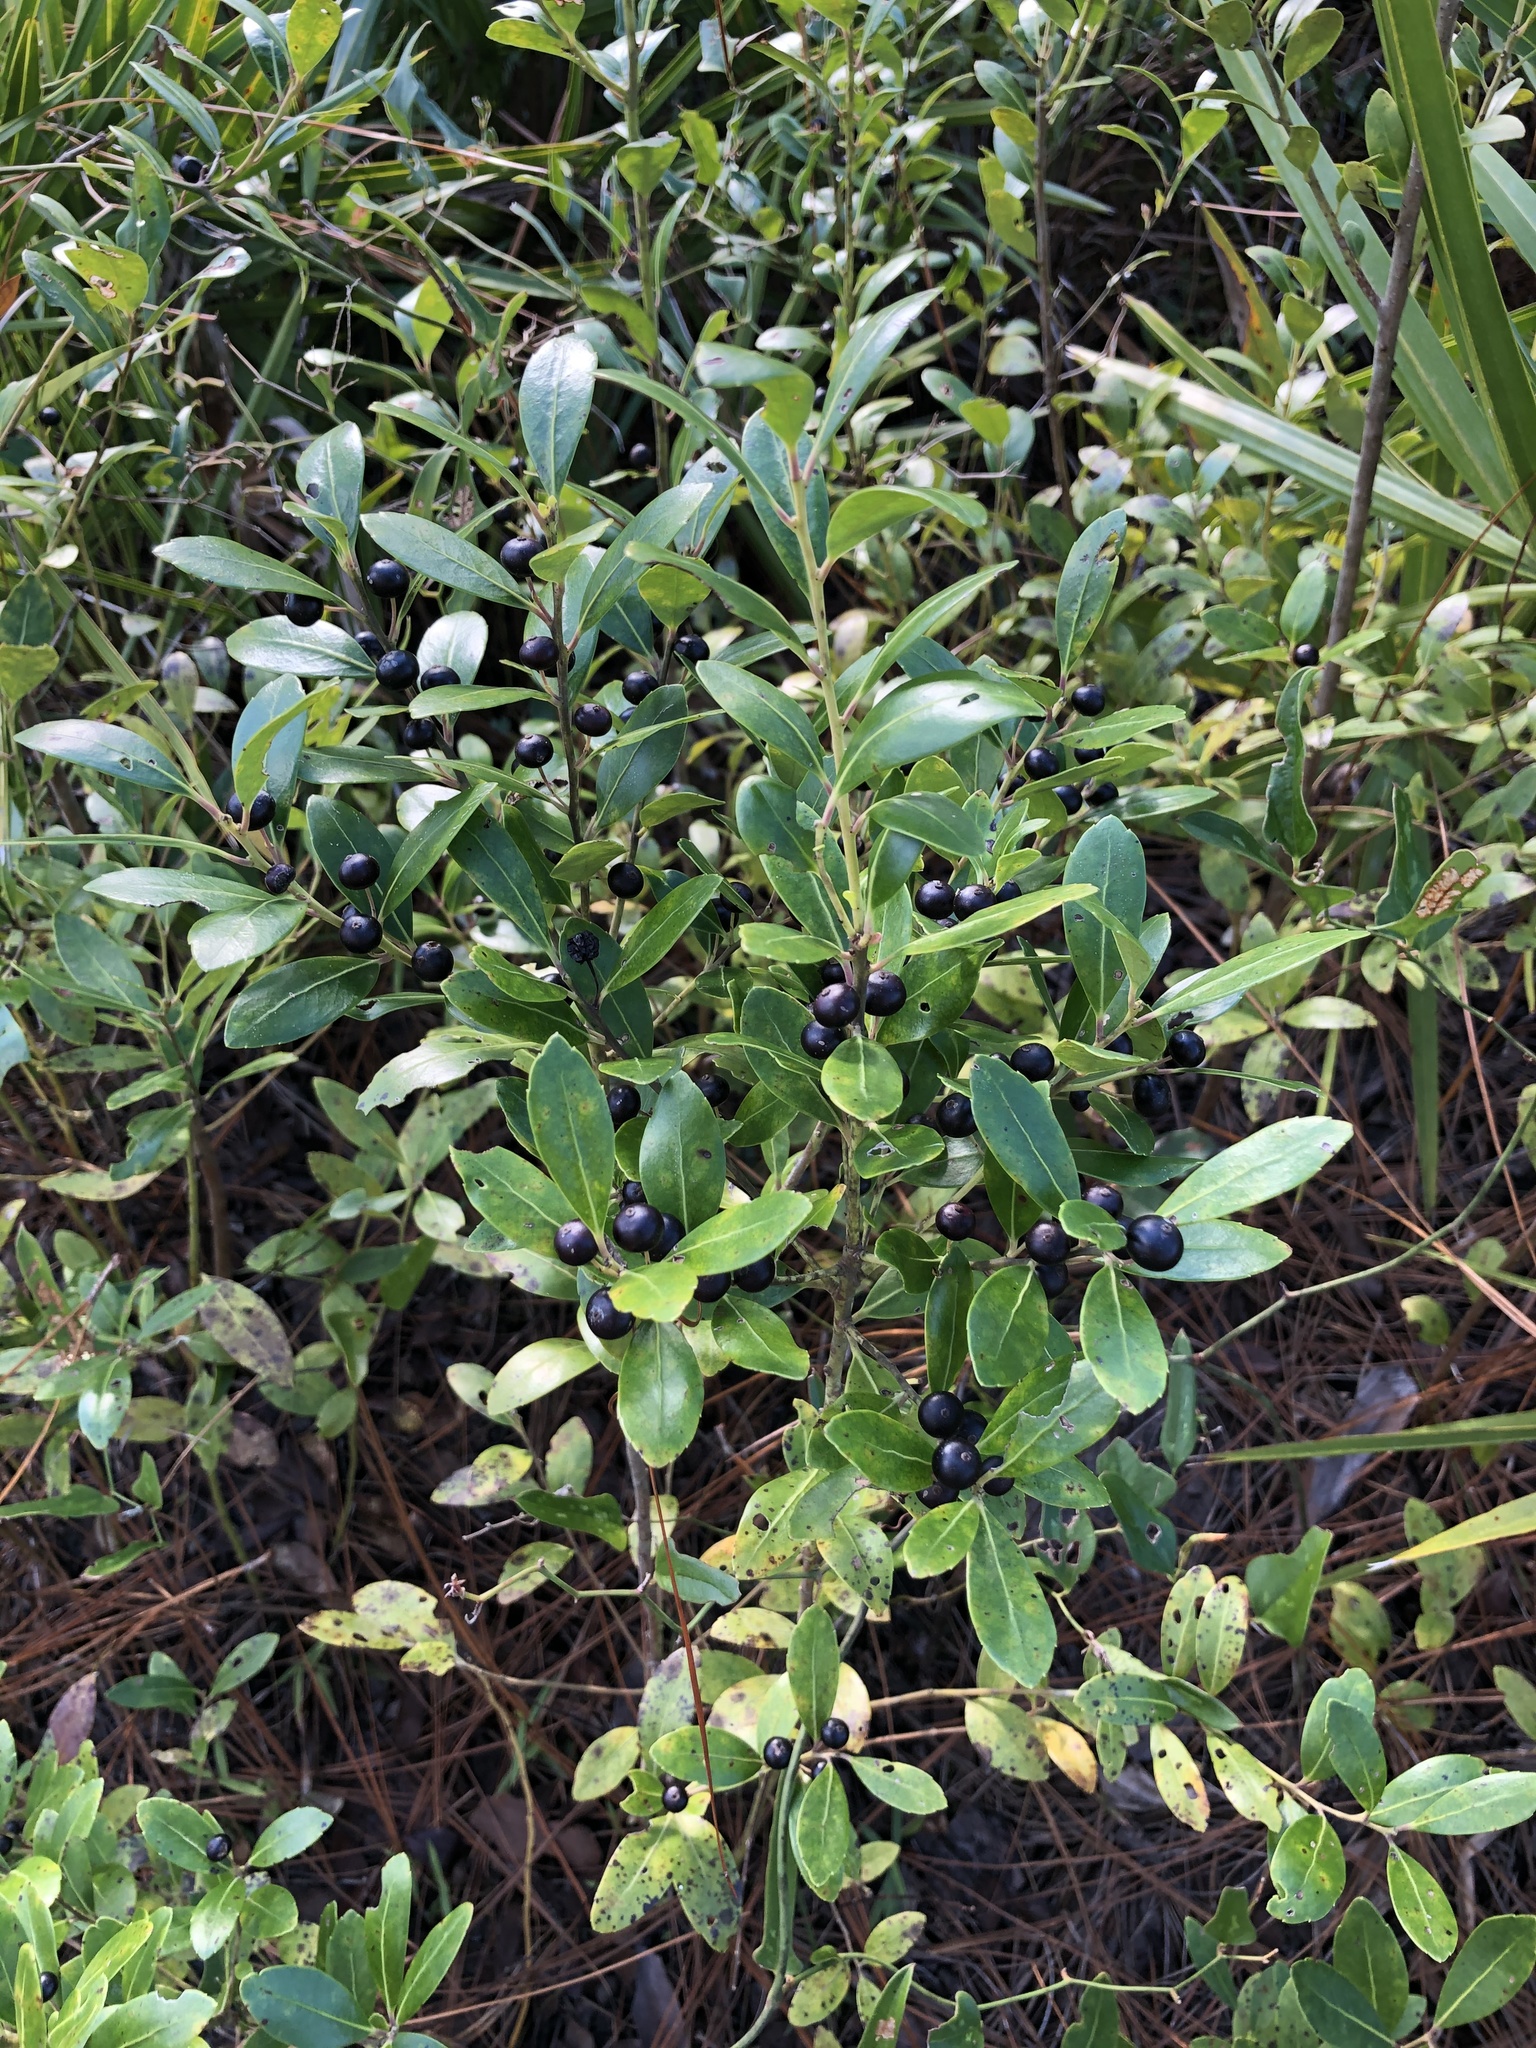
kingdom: Plantae
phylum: Tracheophyta
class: Magnoliopsida
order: Aquifoliales
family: Aquifoliaceae
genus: Ilex
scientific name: Ilex glabra
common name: Bitter gallberry
